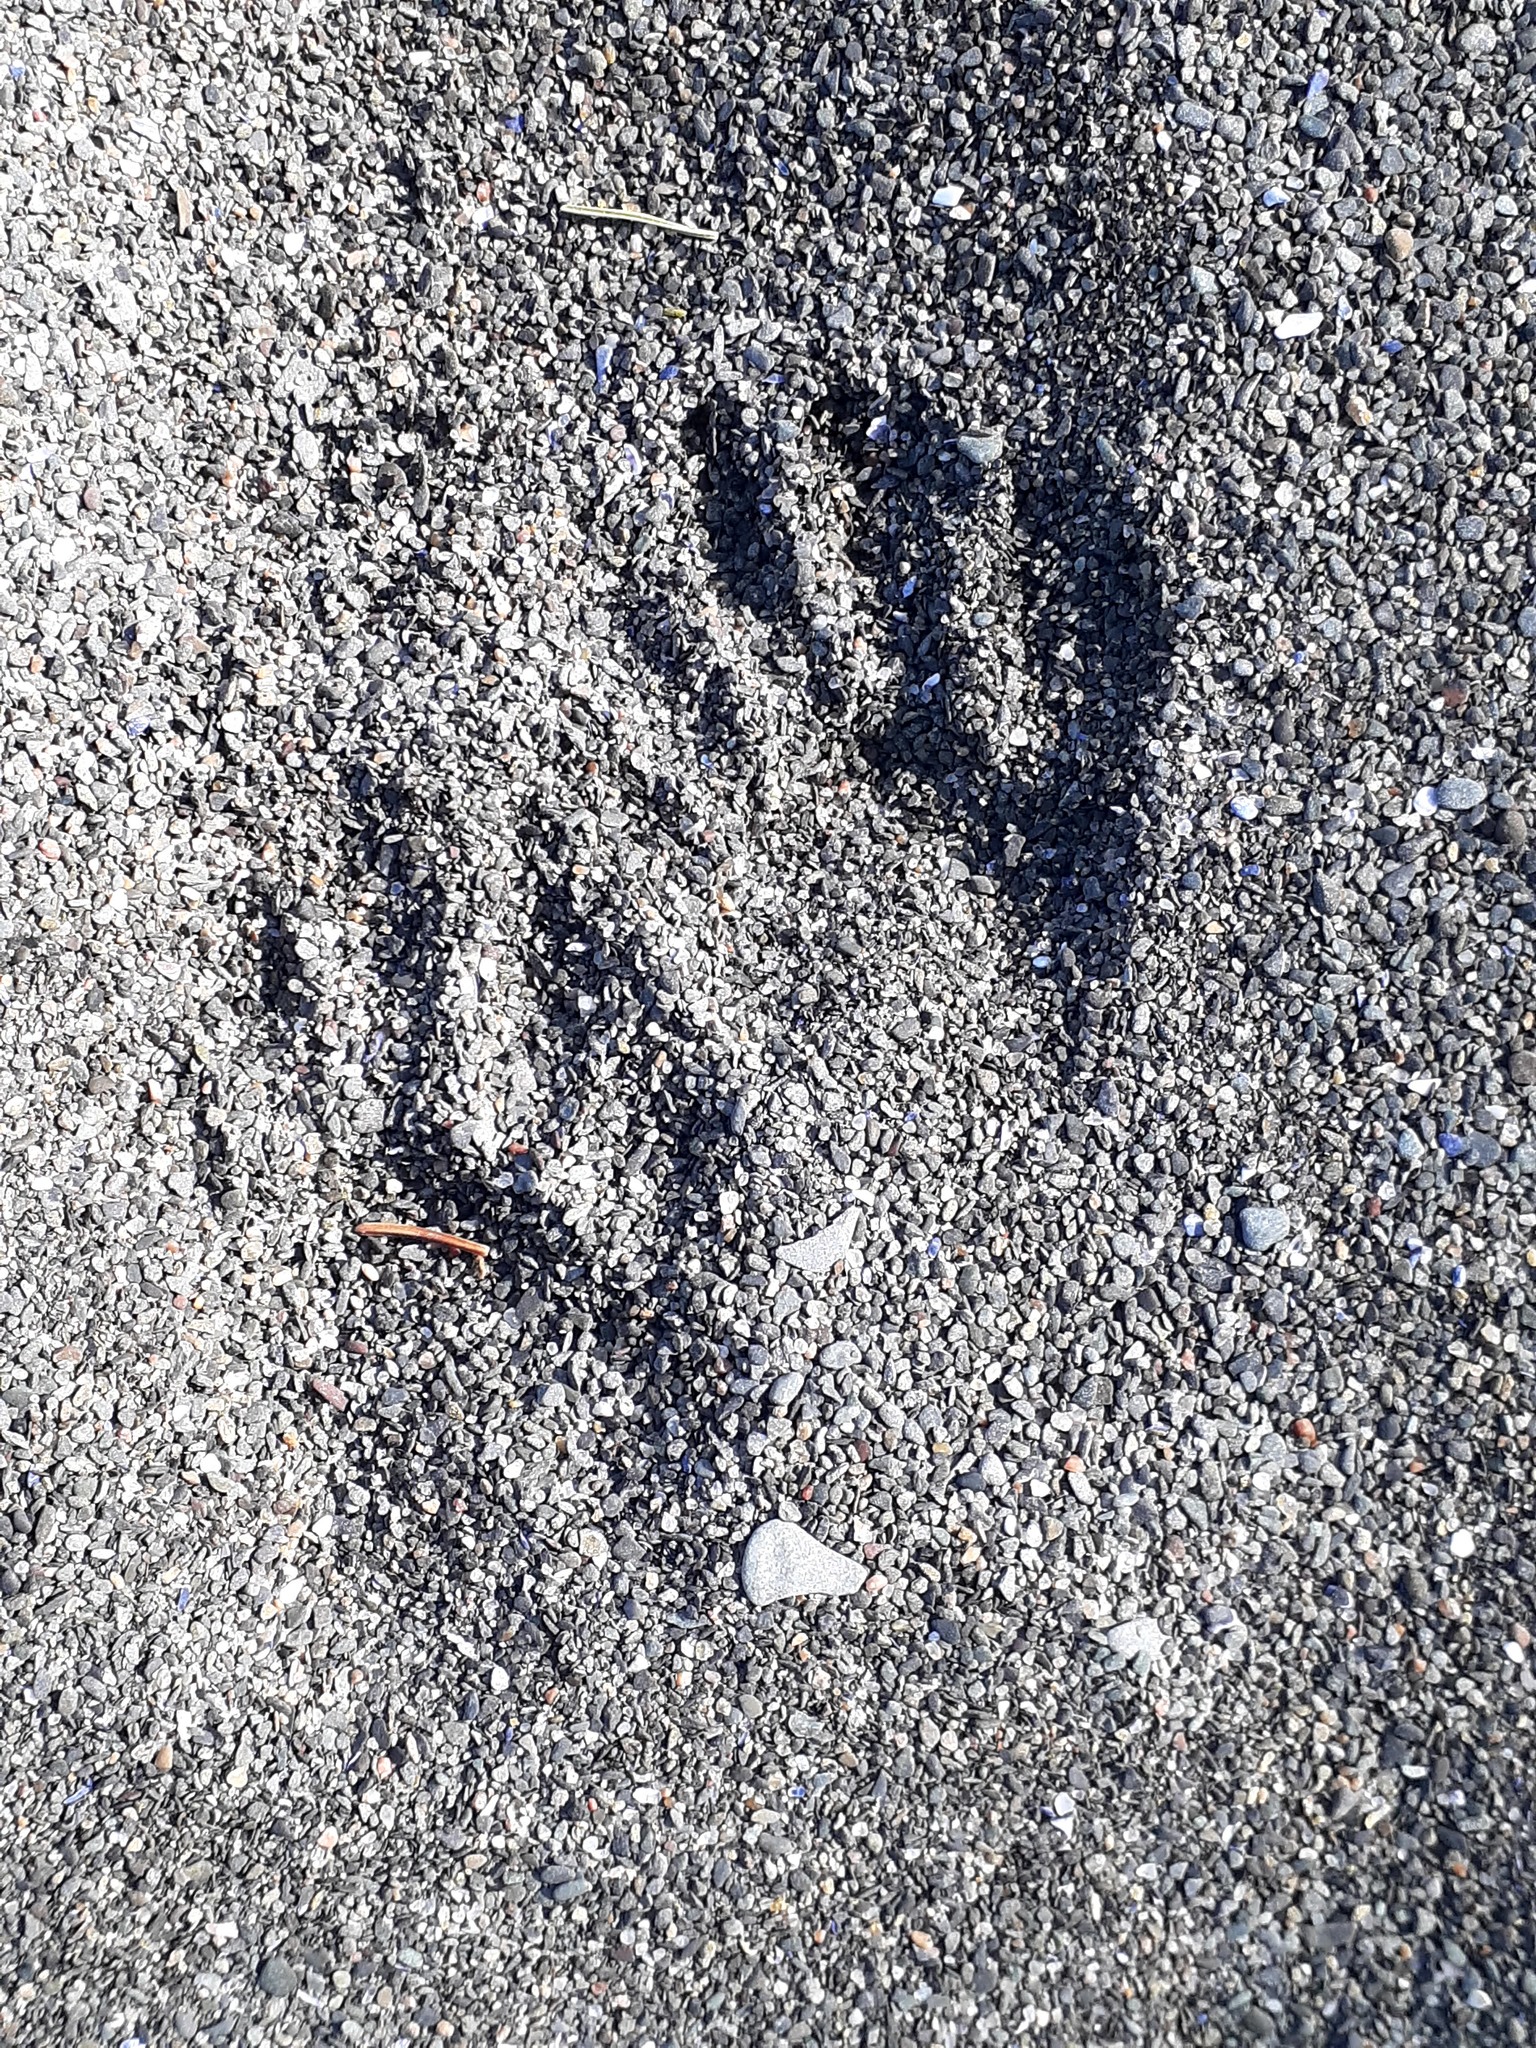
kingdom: Animalia
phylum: Chordata
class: Mammalia
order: Carnivora
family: Procyonidae
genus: Procyon
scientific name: Procyon lotor
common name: Raccoon
